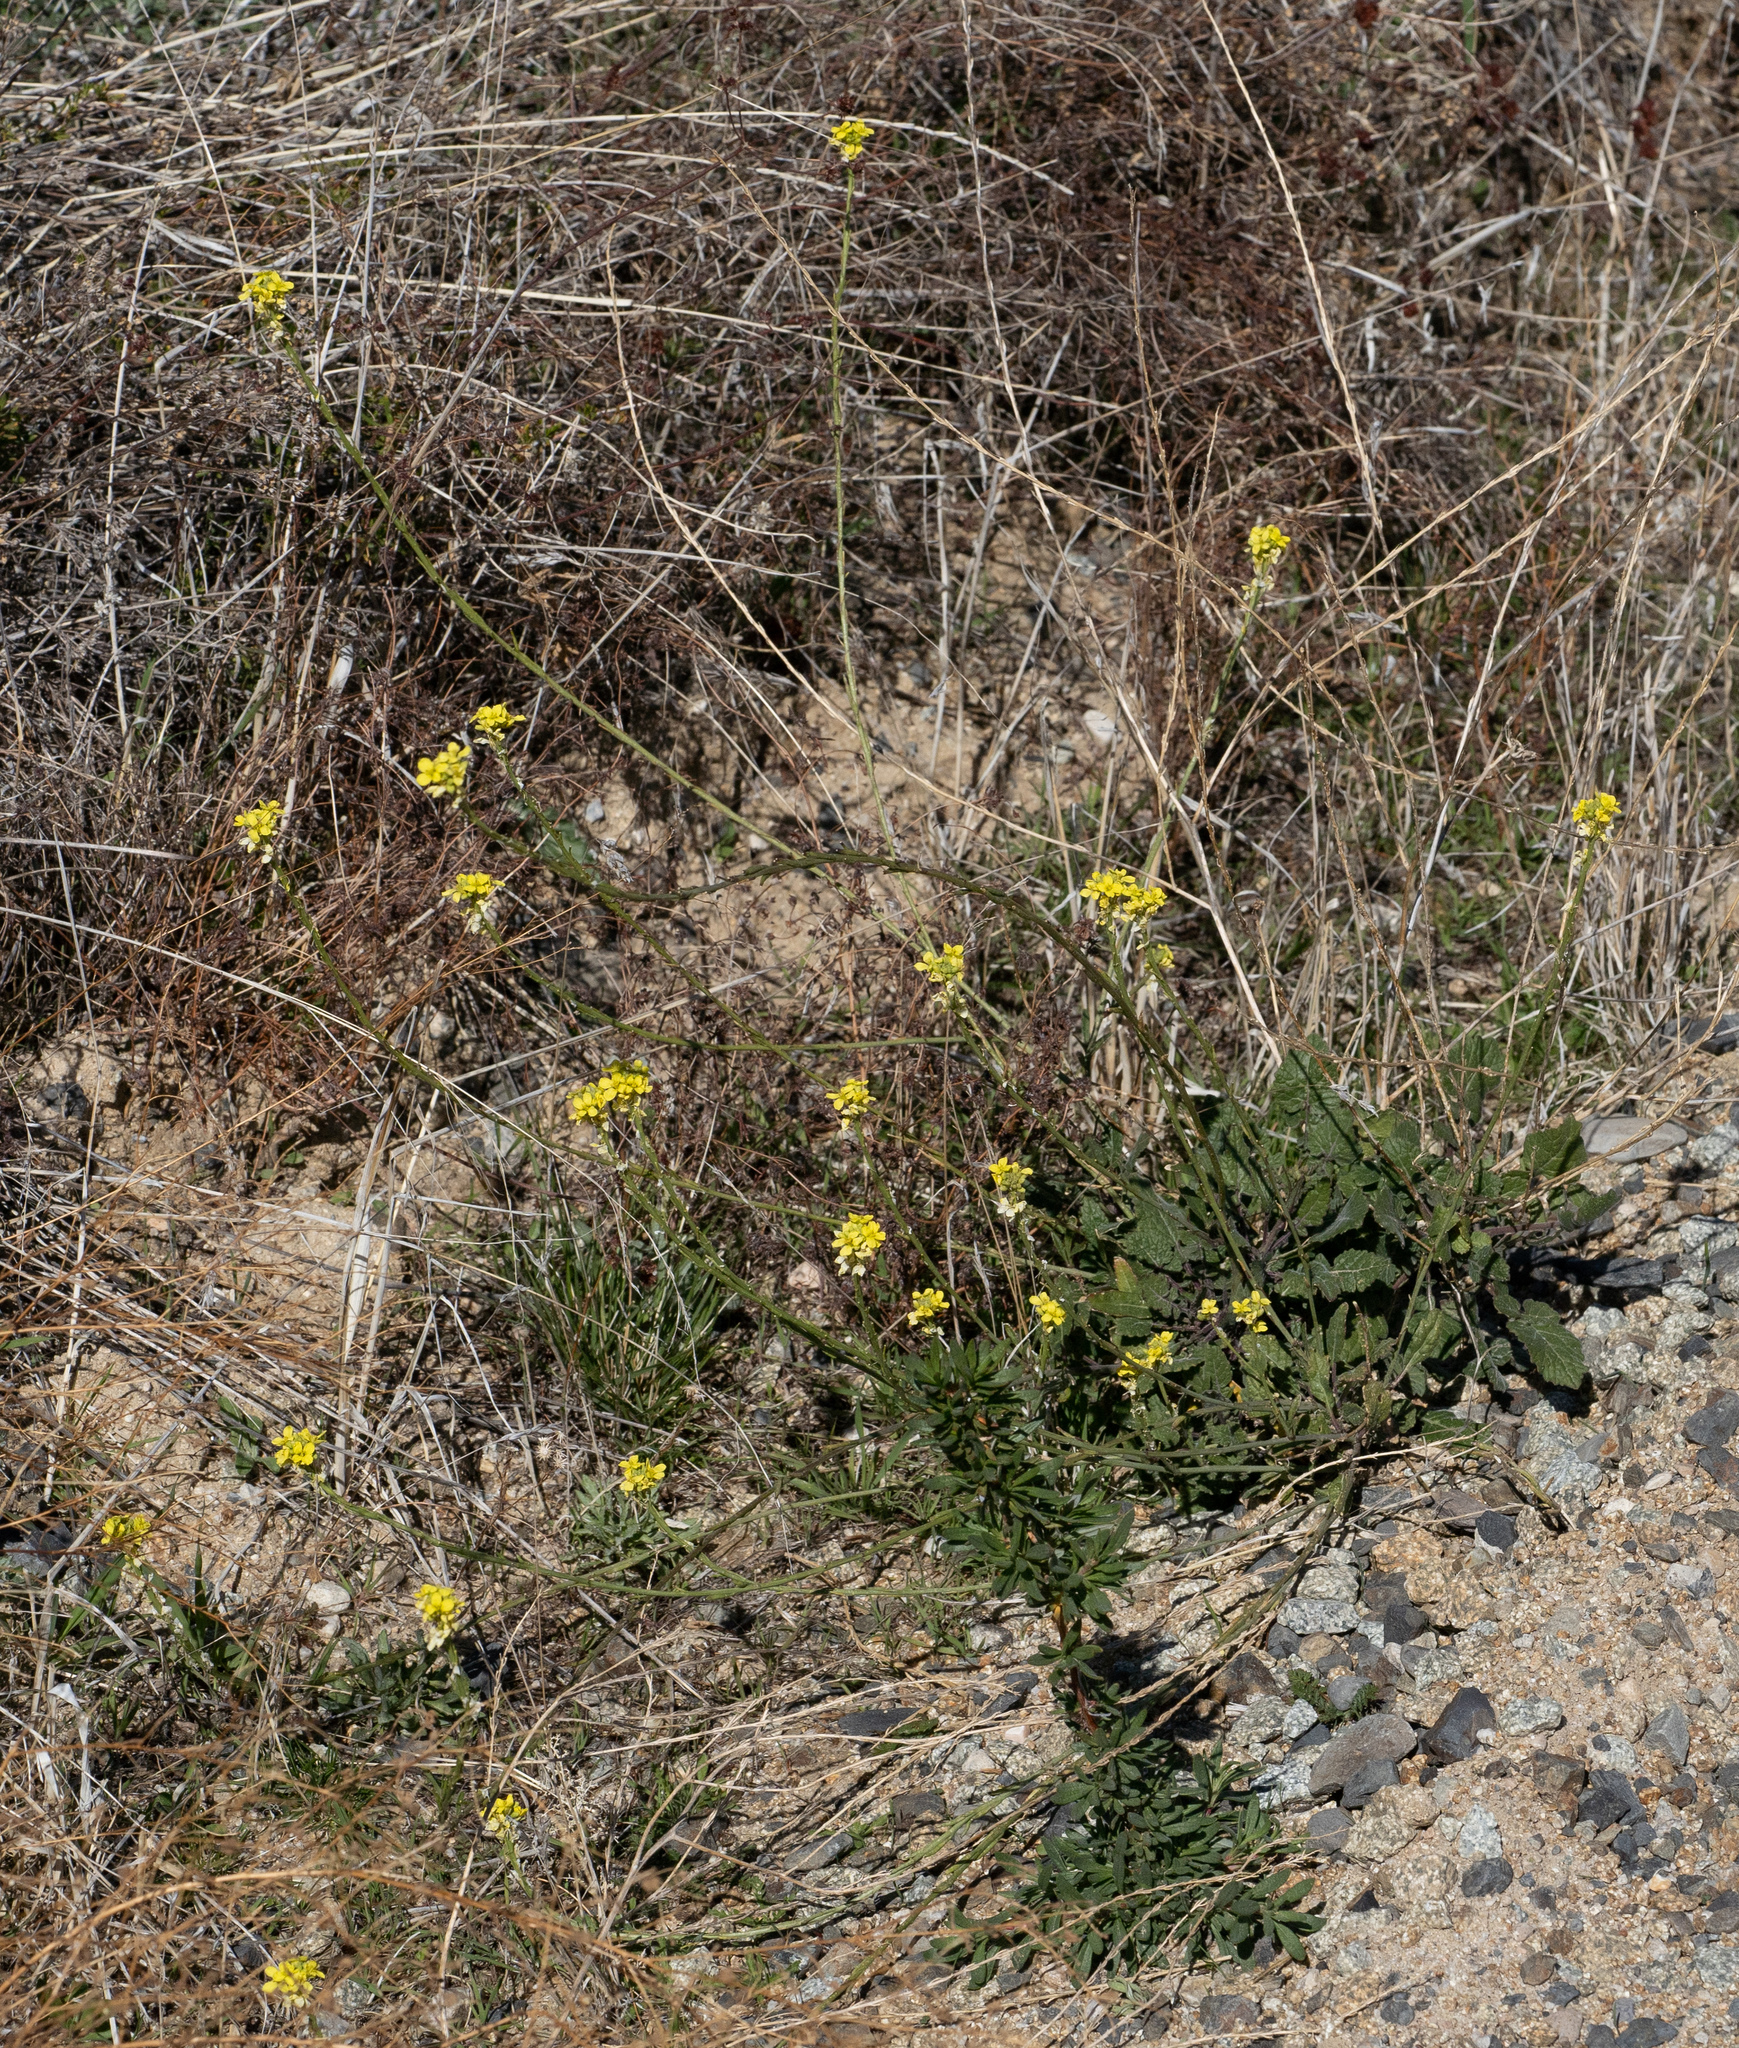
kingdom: Plantae
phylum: Tracheophyta
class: Magnoliopsida
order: Brassicales
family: Brassicaceae
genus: Hirschfeldia
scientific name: Hirschfeldia incana
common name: Hoary mustard
